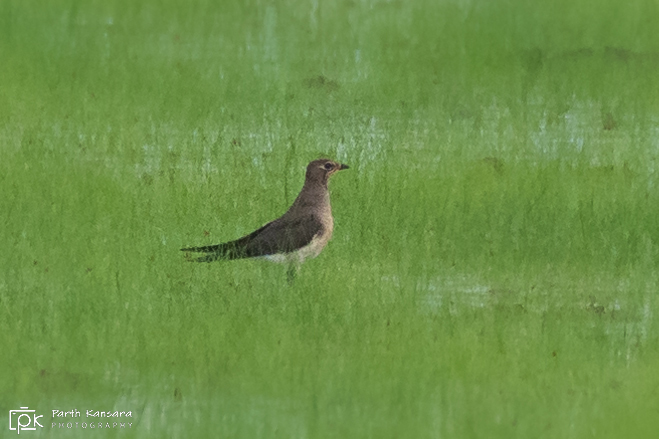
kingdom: Animalia
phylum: Chordata
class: Aves
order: Charadriiformes
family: Glareolidae
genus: Glareola
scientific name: Glareola maldivarum
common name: Oriental pratincole
